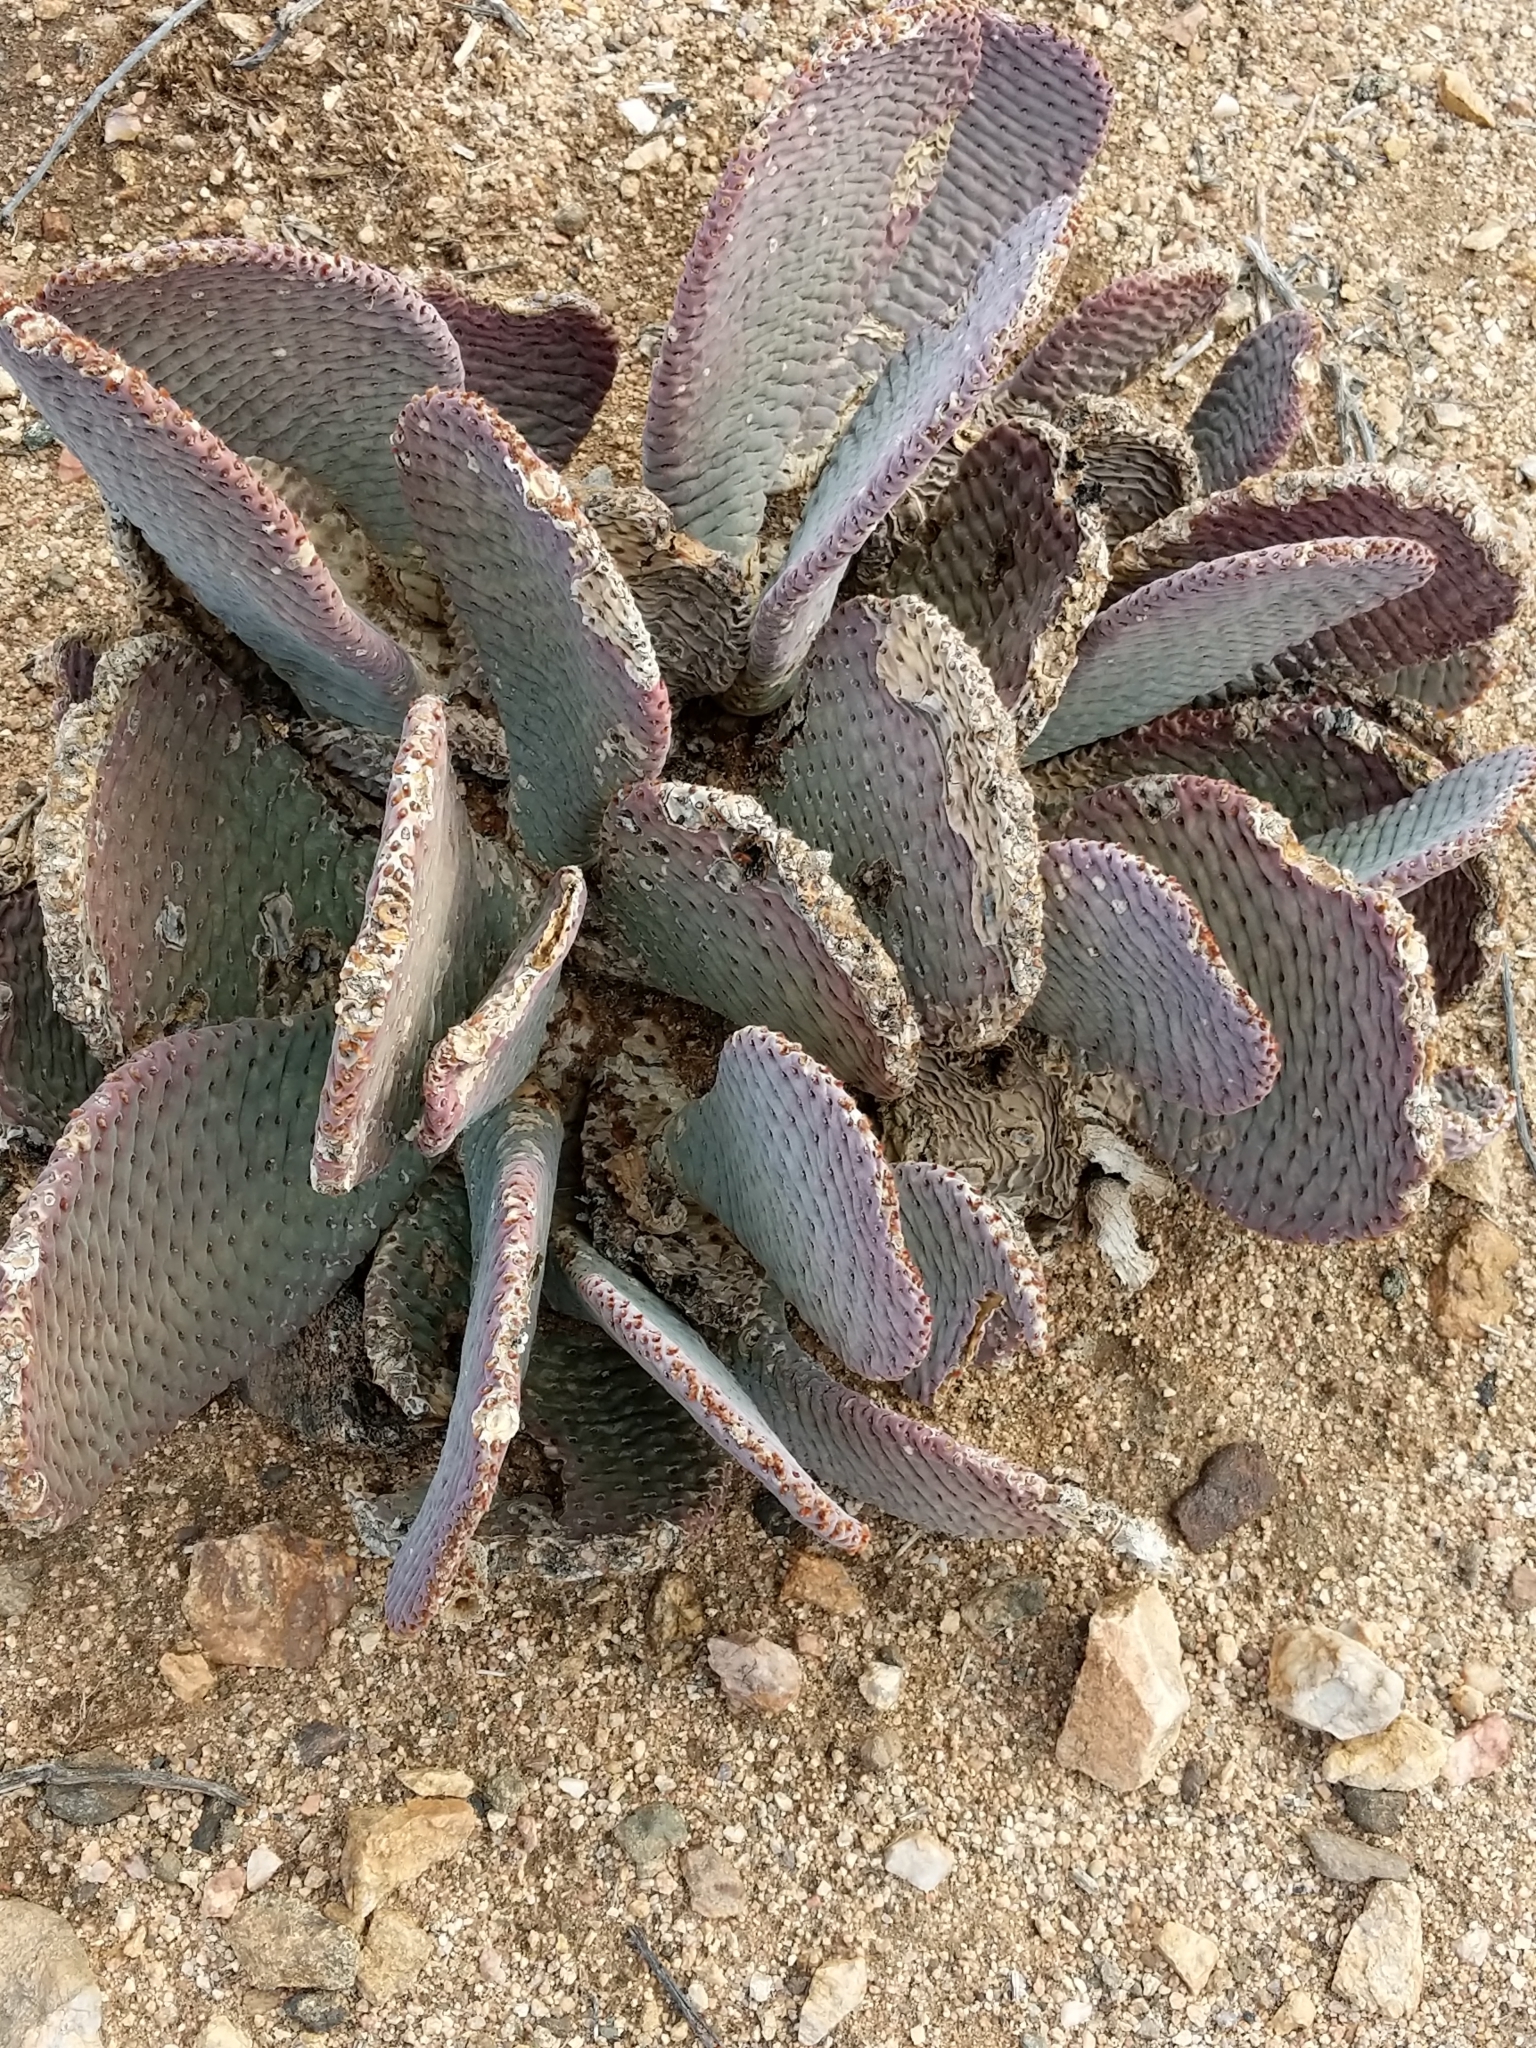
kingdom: Plantae
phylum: Tracheophyta
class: Magnoliopsida
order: Caryophyllales
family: Cactaceae
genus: Opuntia
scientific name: Opuntia basilaris
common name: Beavertail prickly-pear
